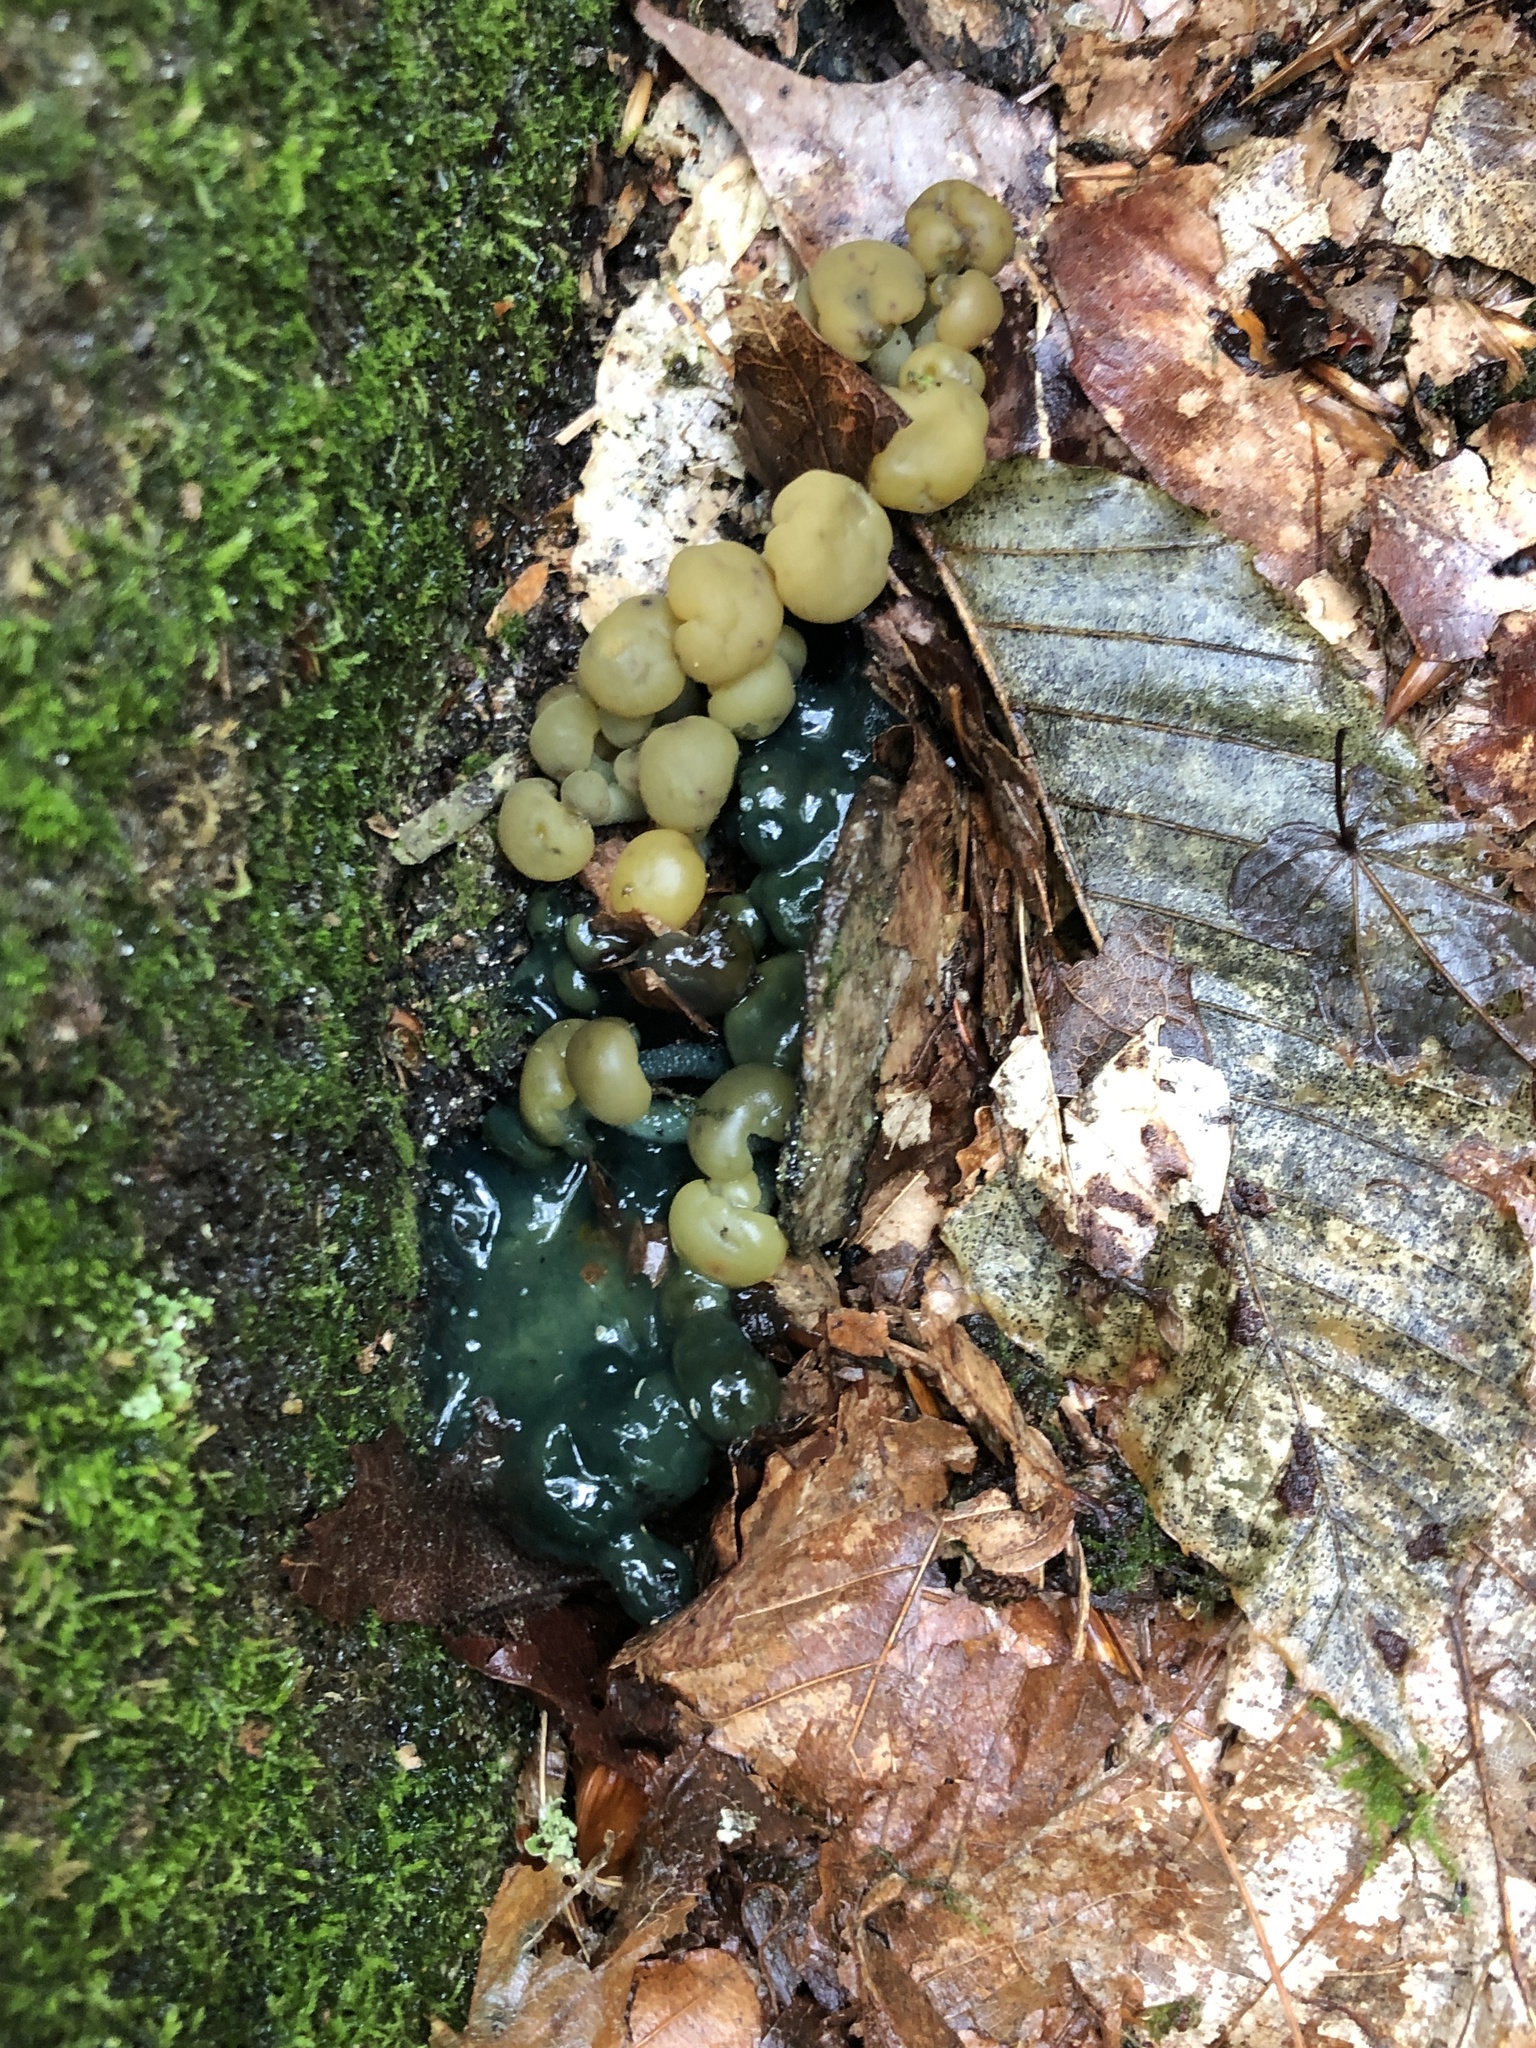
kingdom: Fungi
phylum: Ascomycota
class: Leotiomycetes
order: Leotiales
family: Leotiaceae
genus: Leotia
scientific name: Leotia lubrica
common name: Jellybaby
